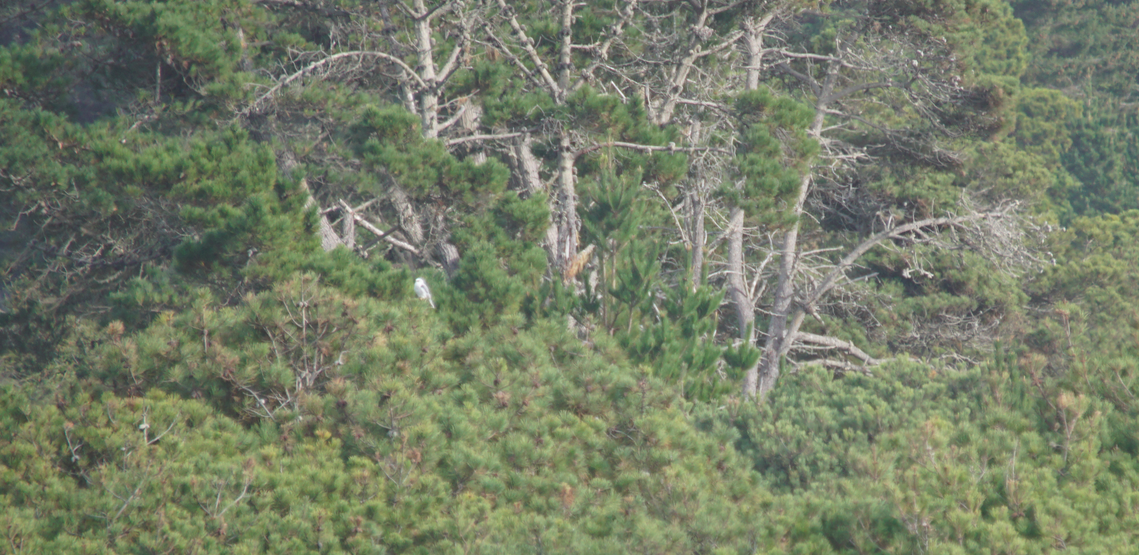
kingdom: Animalia
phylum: Chordata
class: Aves
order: Accipitriformes
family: Accipitridae
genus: Elanus
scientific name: Elanus leucurus
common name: White-tailed kite
